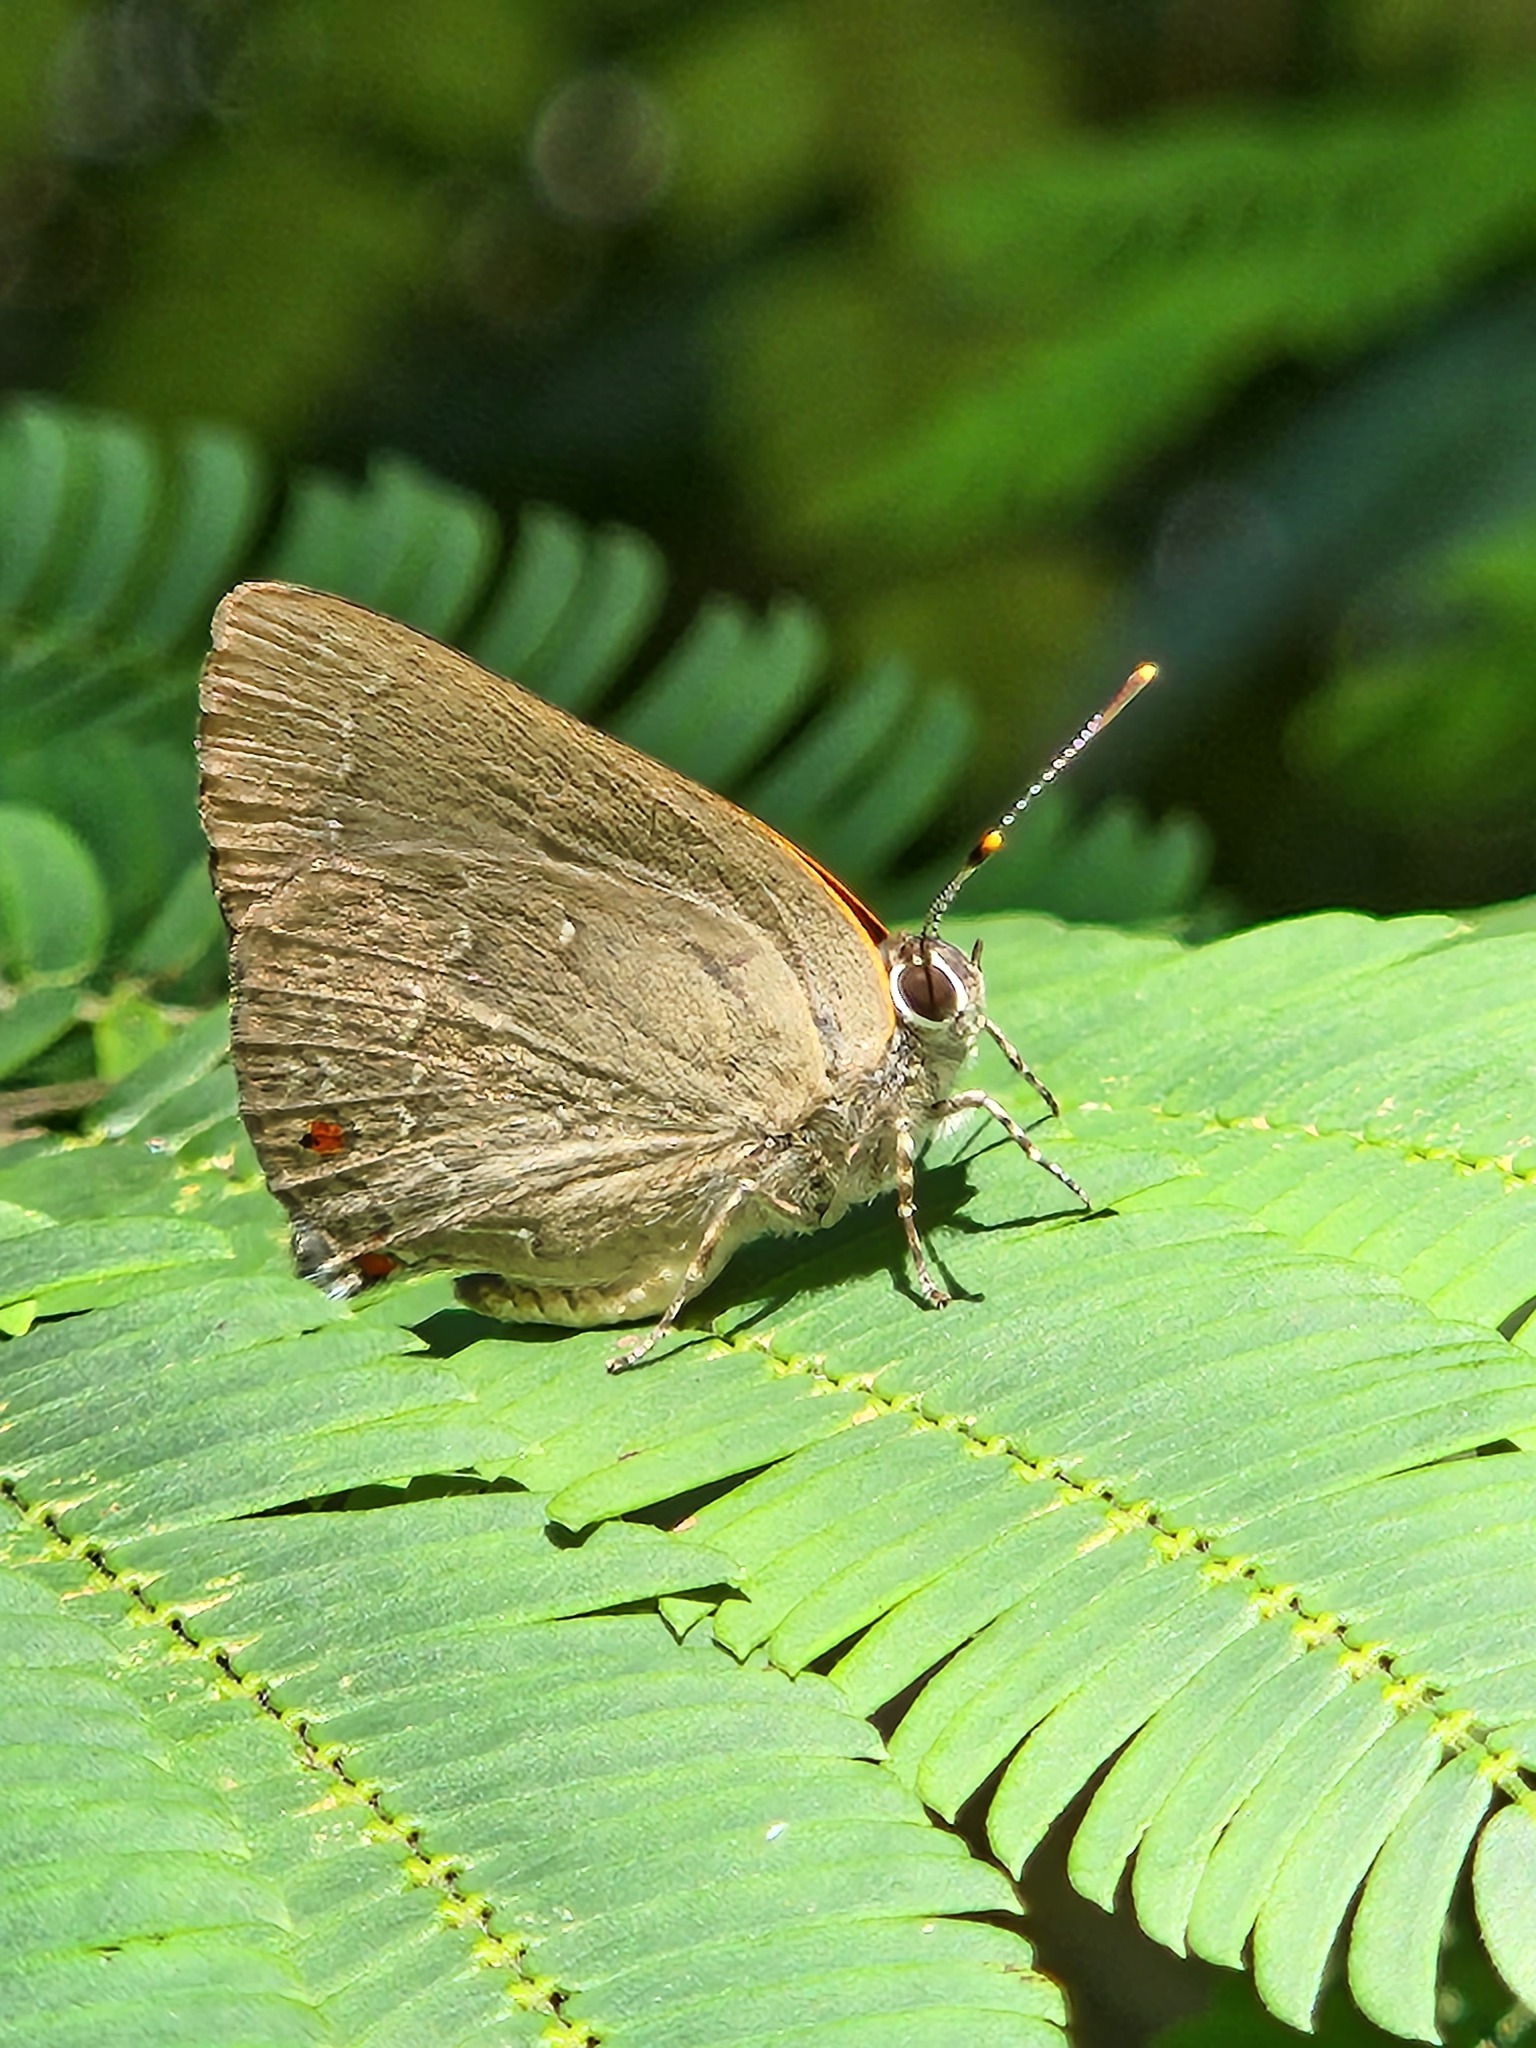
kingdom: Animalia
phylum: Arthropoda
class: Insecta
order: Lepidoptera
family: Lycaenidae
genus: Ignata
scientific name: Ignata brasiliensis
